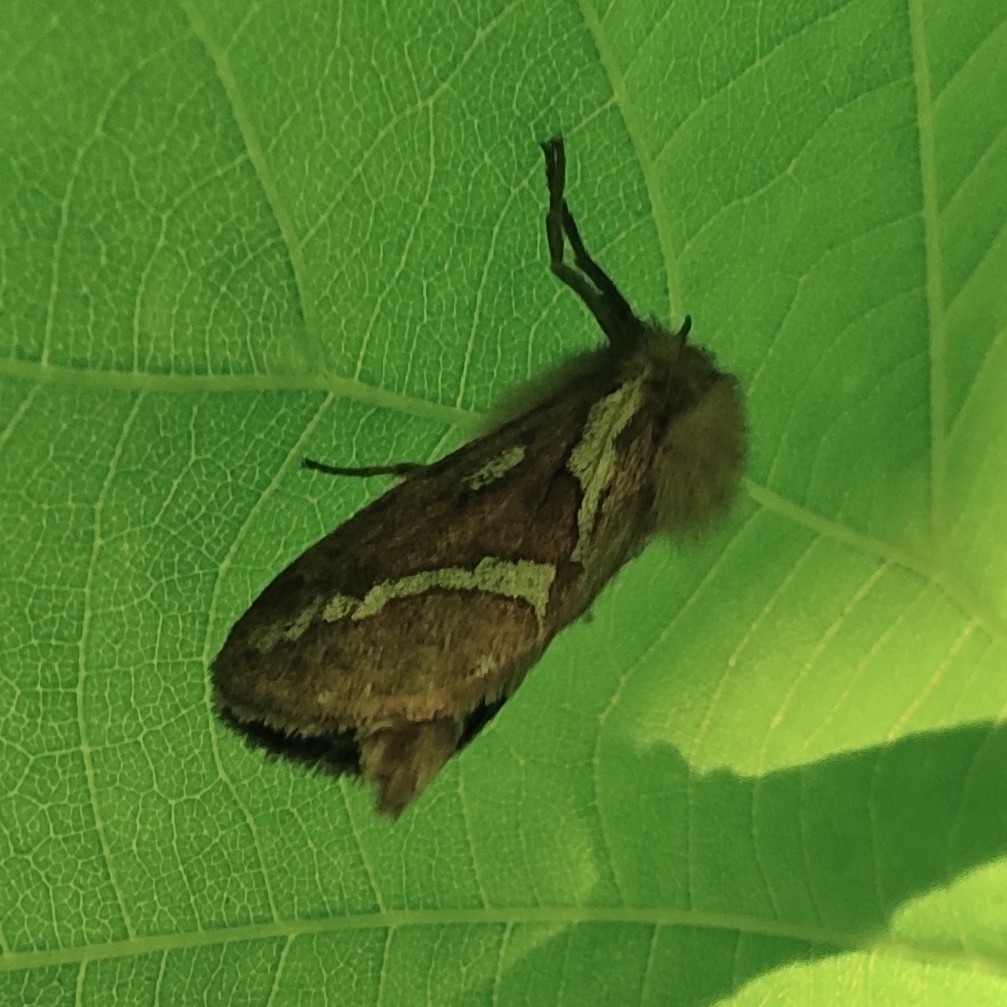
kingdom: Animalia
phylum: Arthropoda
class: Insecta
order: Lepidoptera
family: Hepialidae
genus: Korscheltellus
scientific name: Korscheltellus lupulina
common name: Common swift
